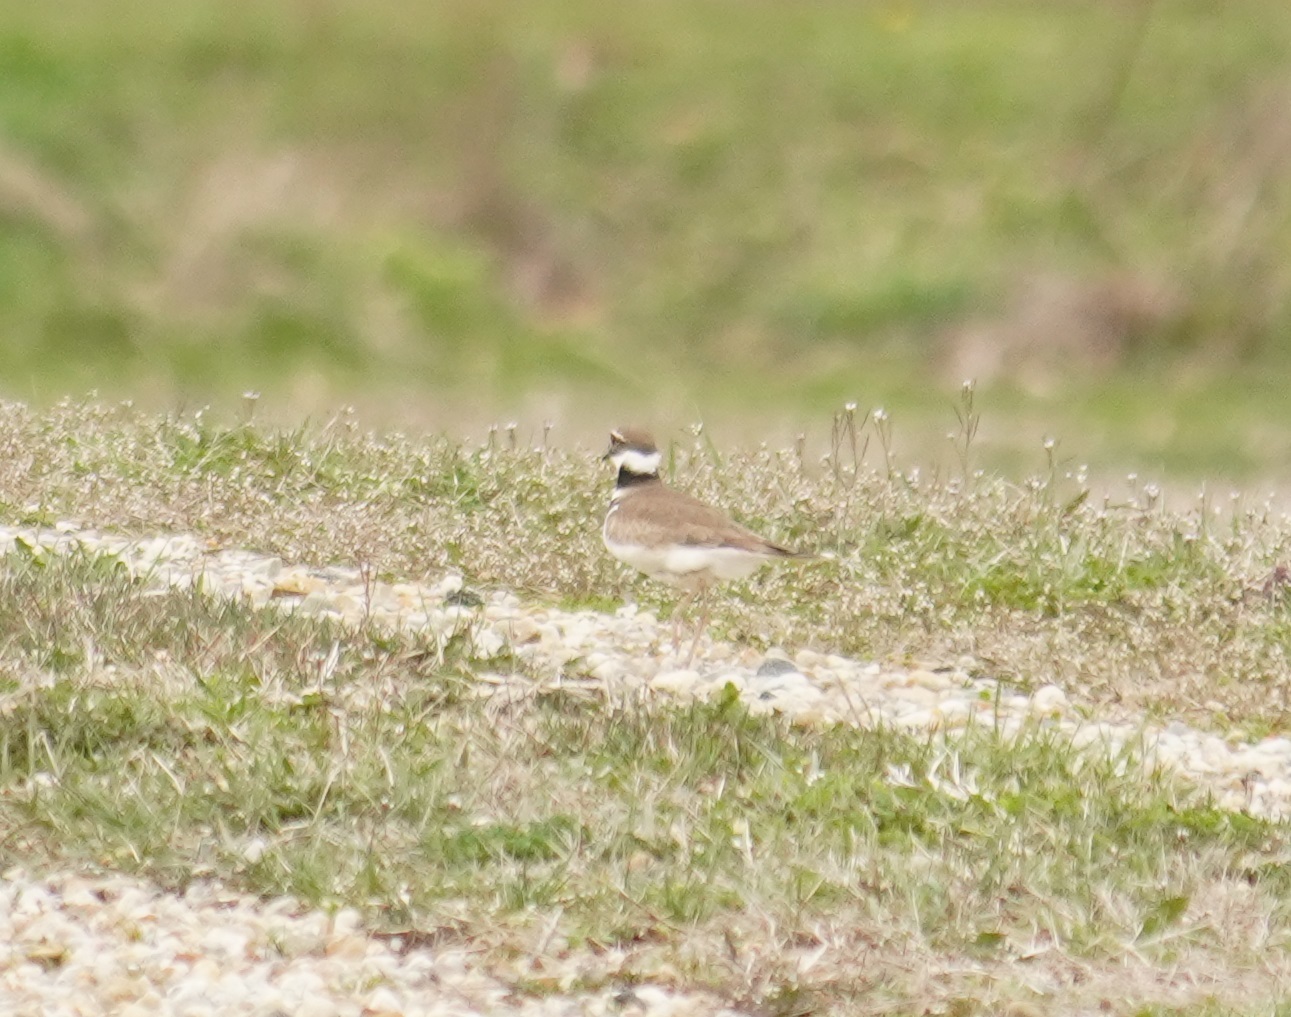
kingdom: Animalia
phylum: Chordata
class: Aves
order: Charadriiformes
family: Charadriidae
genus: Charadrius
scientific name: Charadrius vociferus
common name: Killdeer
